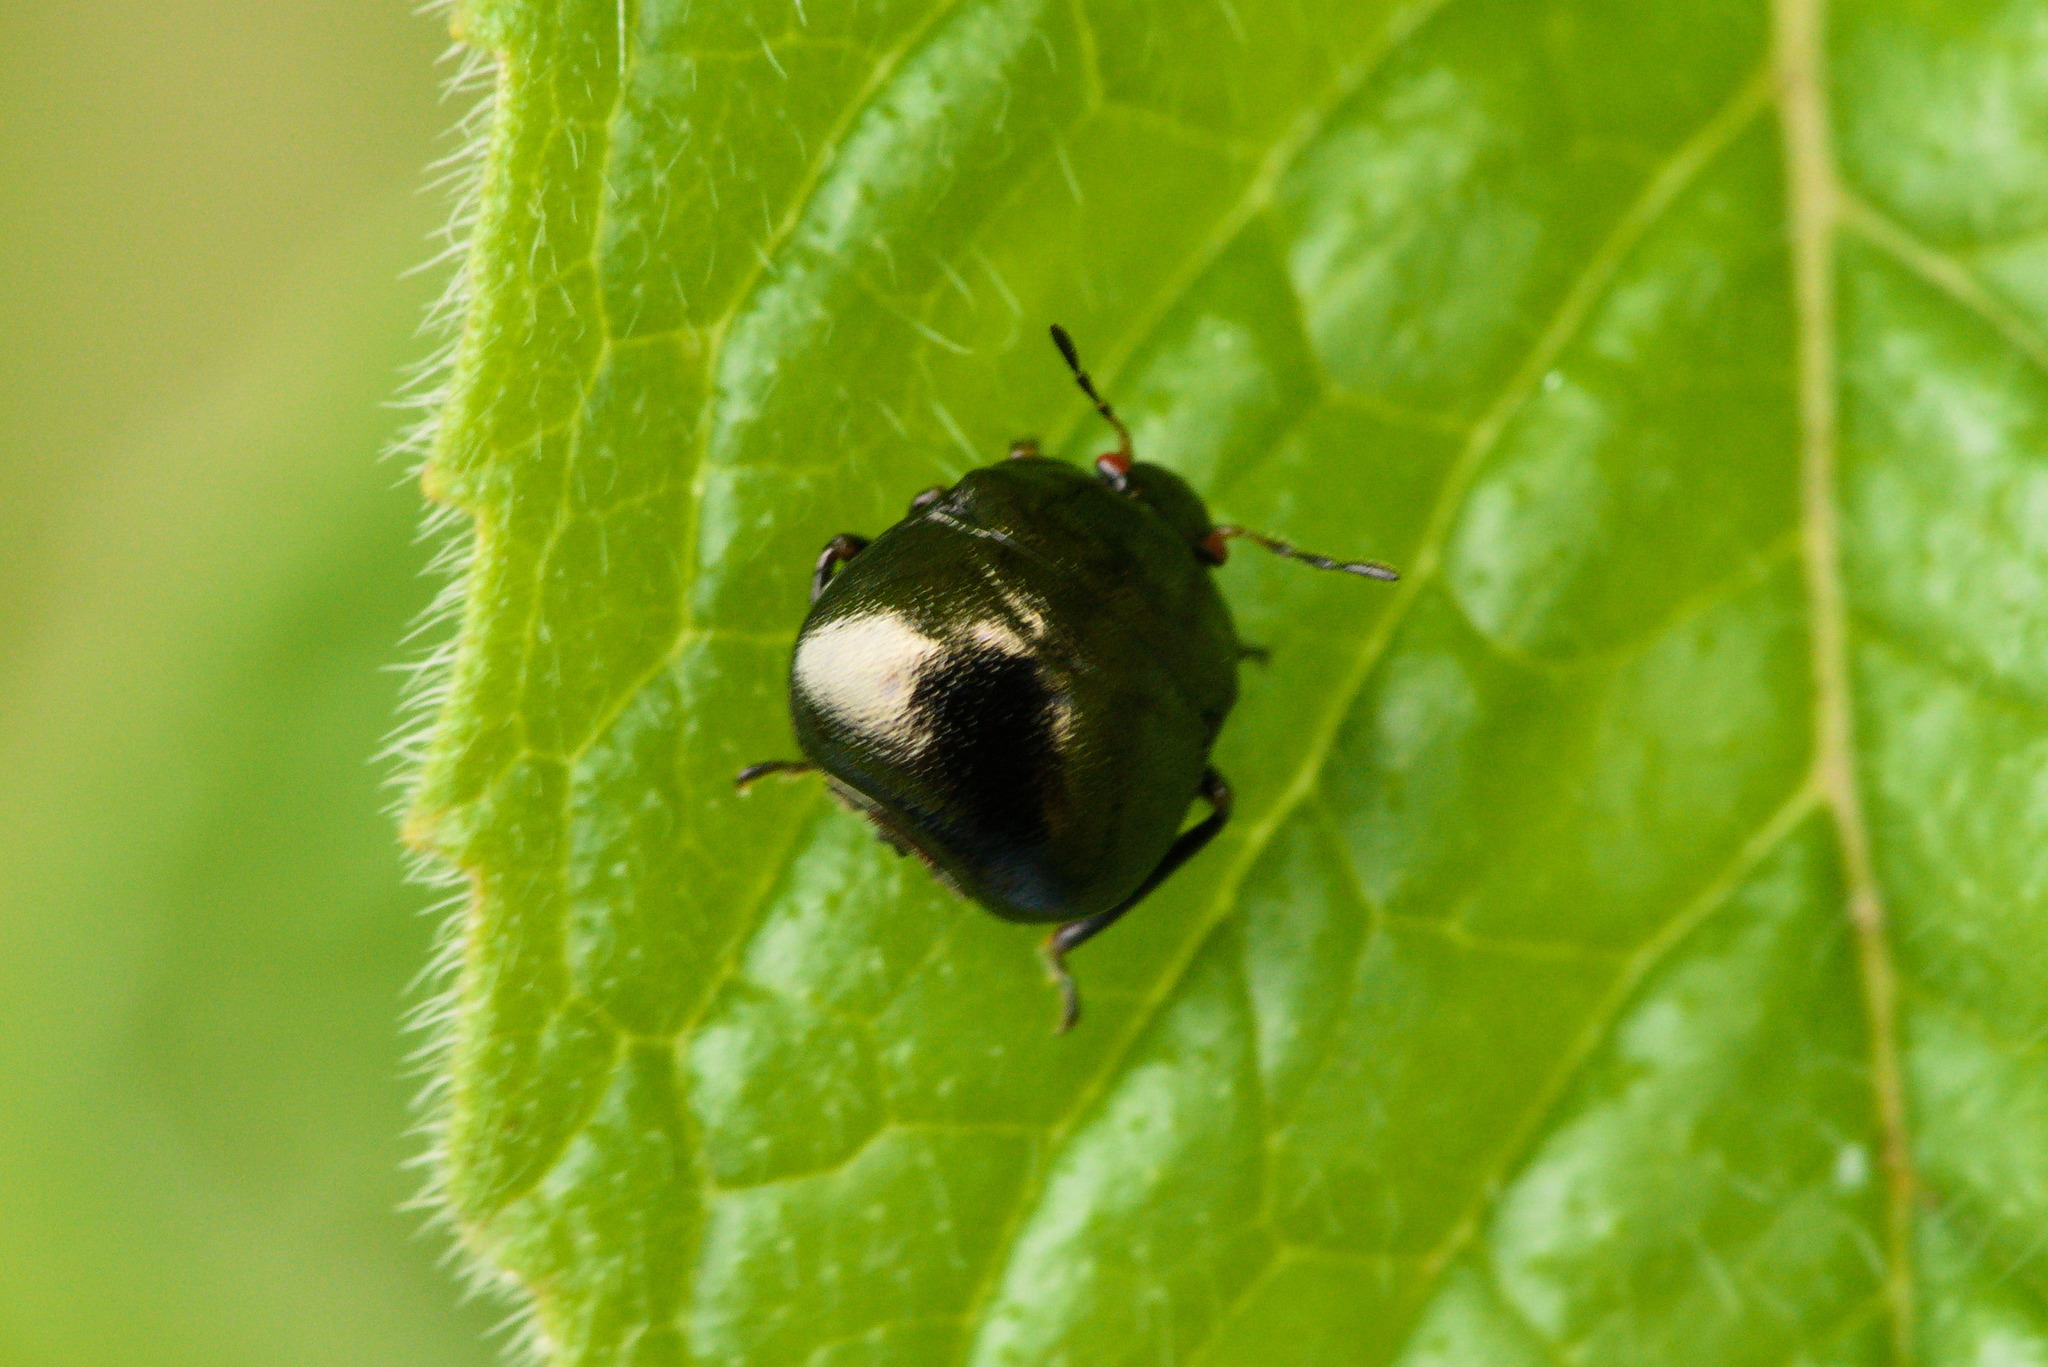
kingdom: Animalia
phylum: Arthropoda
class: Insecta
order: Hemiptera
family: Plataspidae
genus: Coptosoma
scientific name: Coptosoma scutellatum
